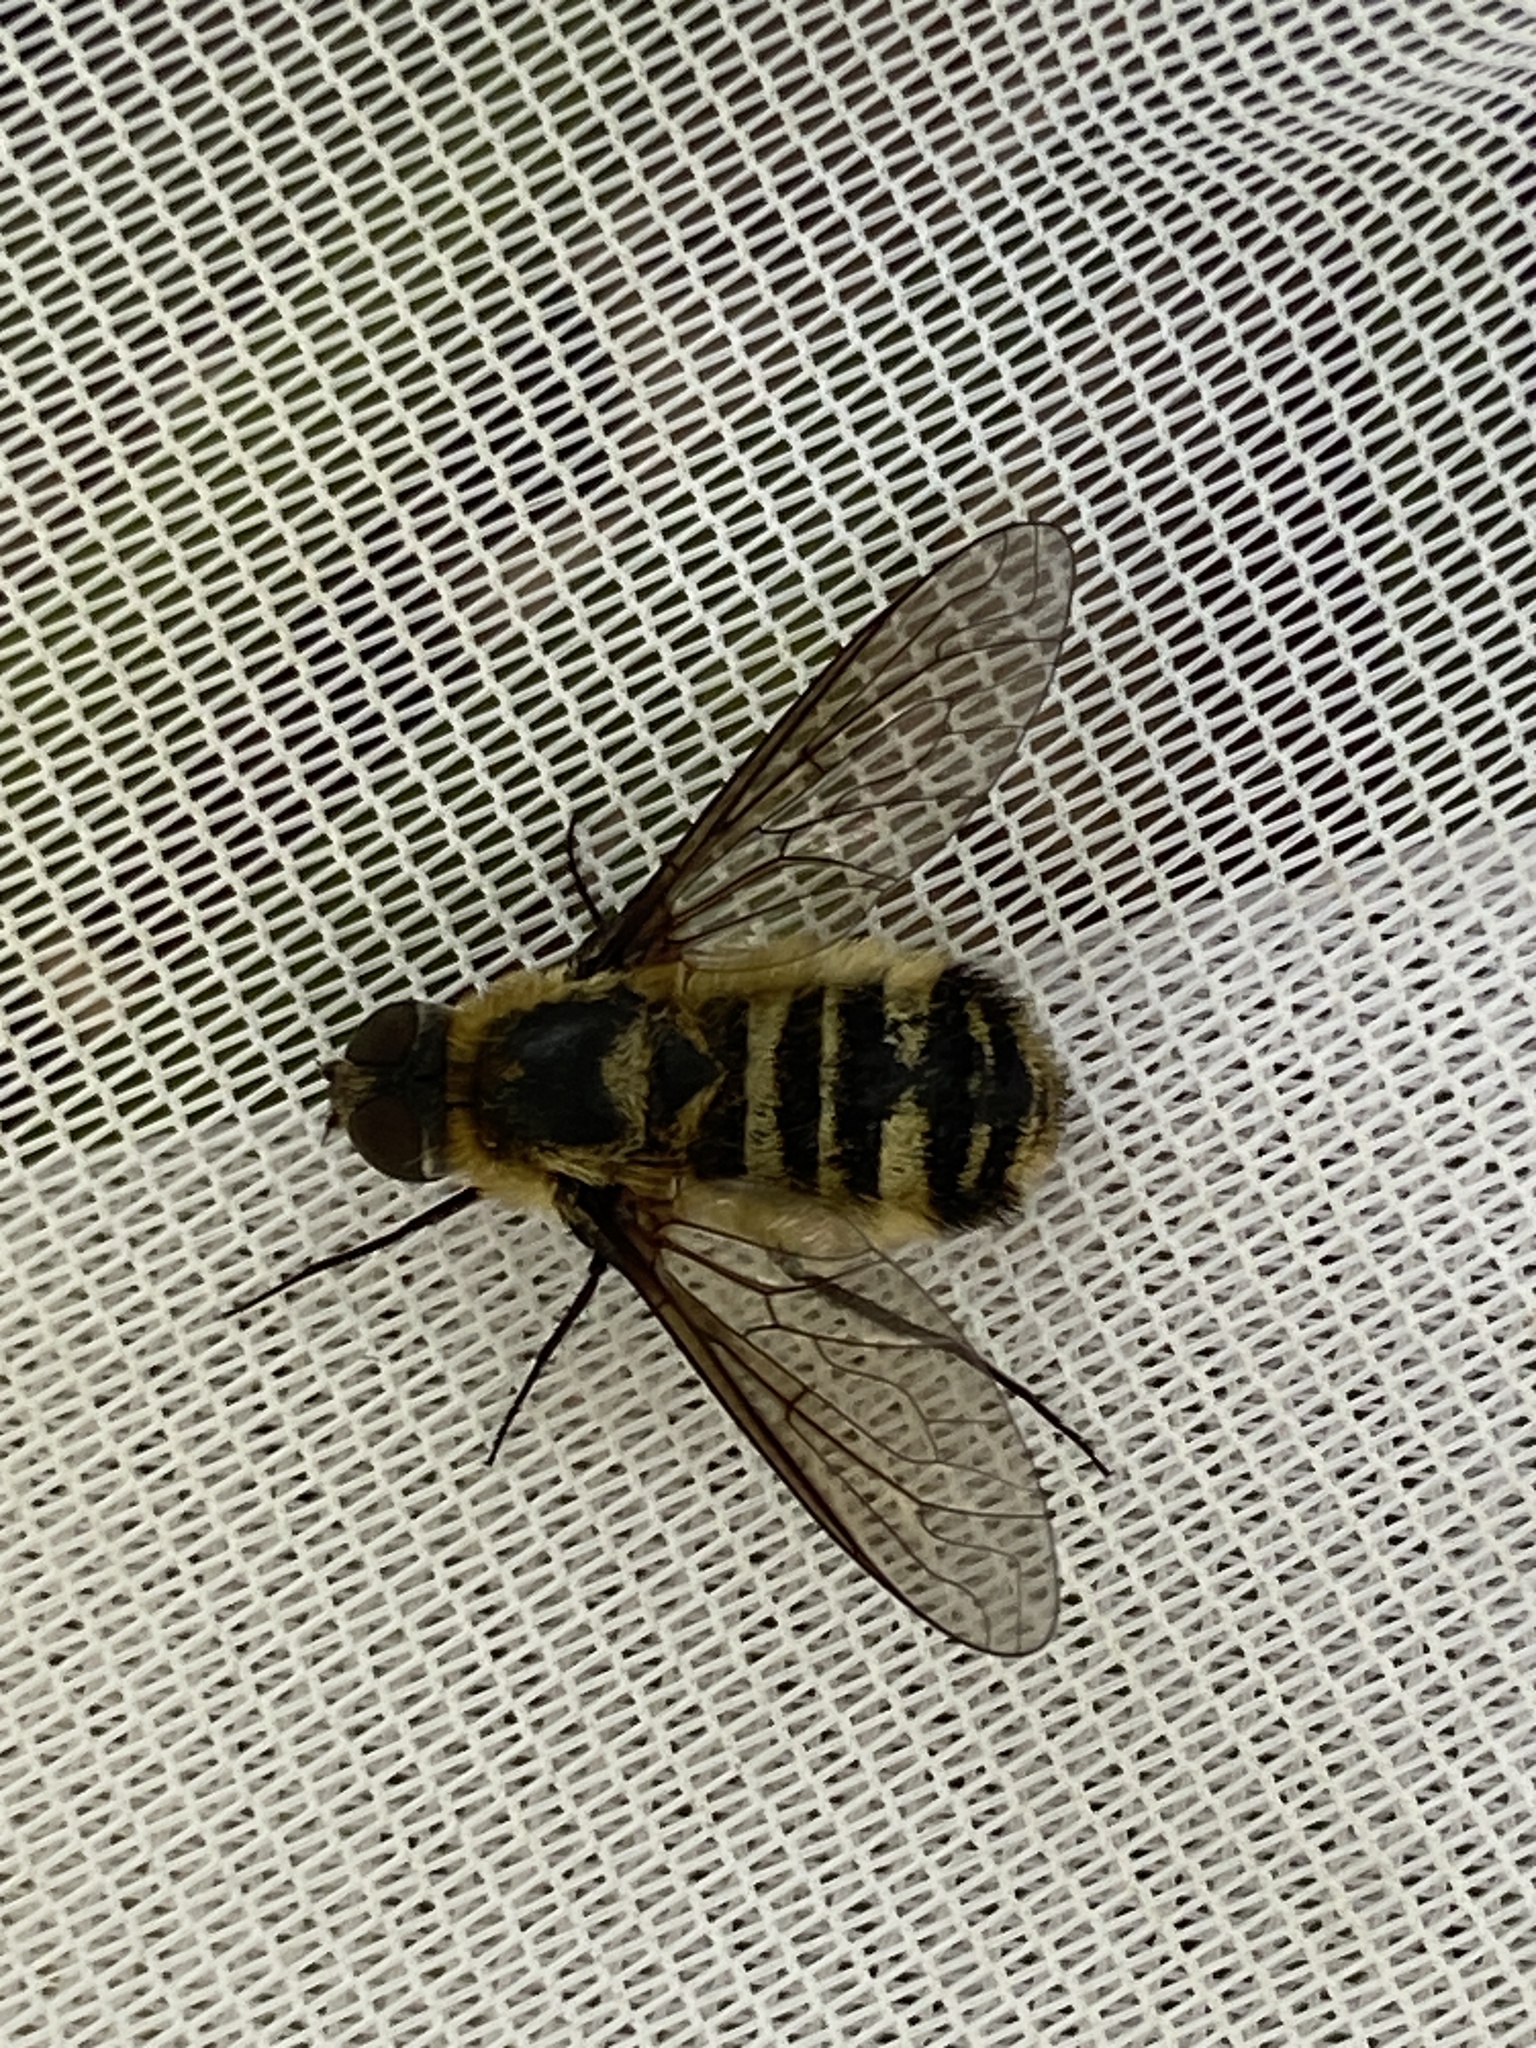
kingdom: Animalia
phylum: Arthropoda
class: Insecta
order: Diptera
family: Bombyliidae
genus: Villa
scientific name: Villa cingulata
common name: Downland villa
